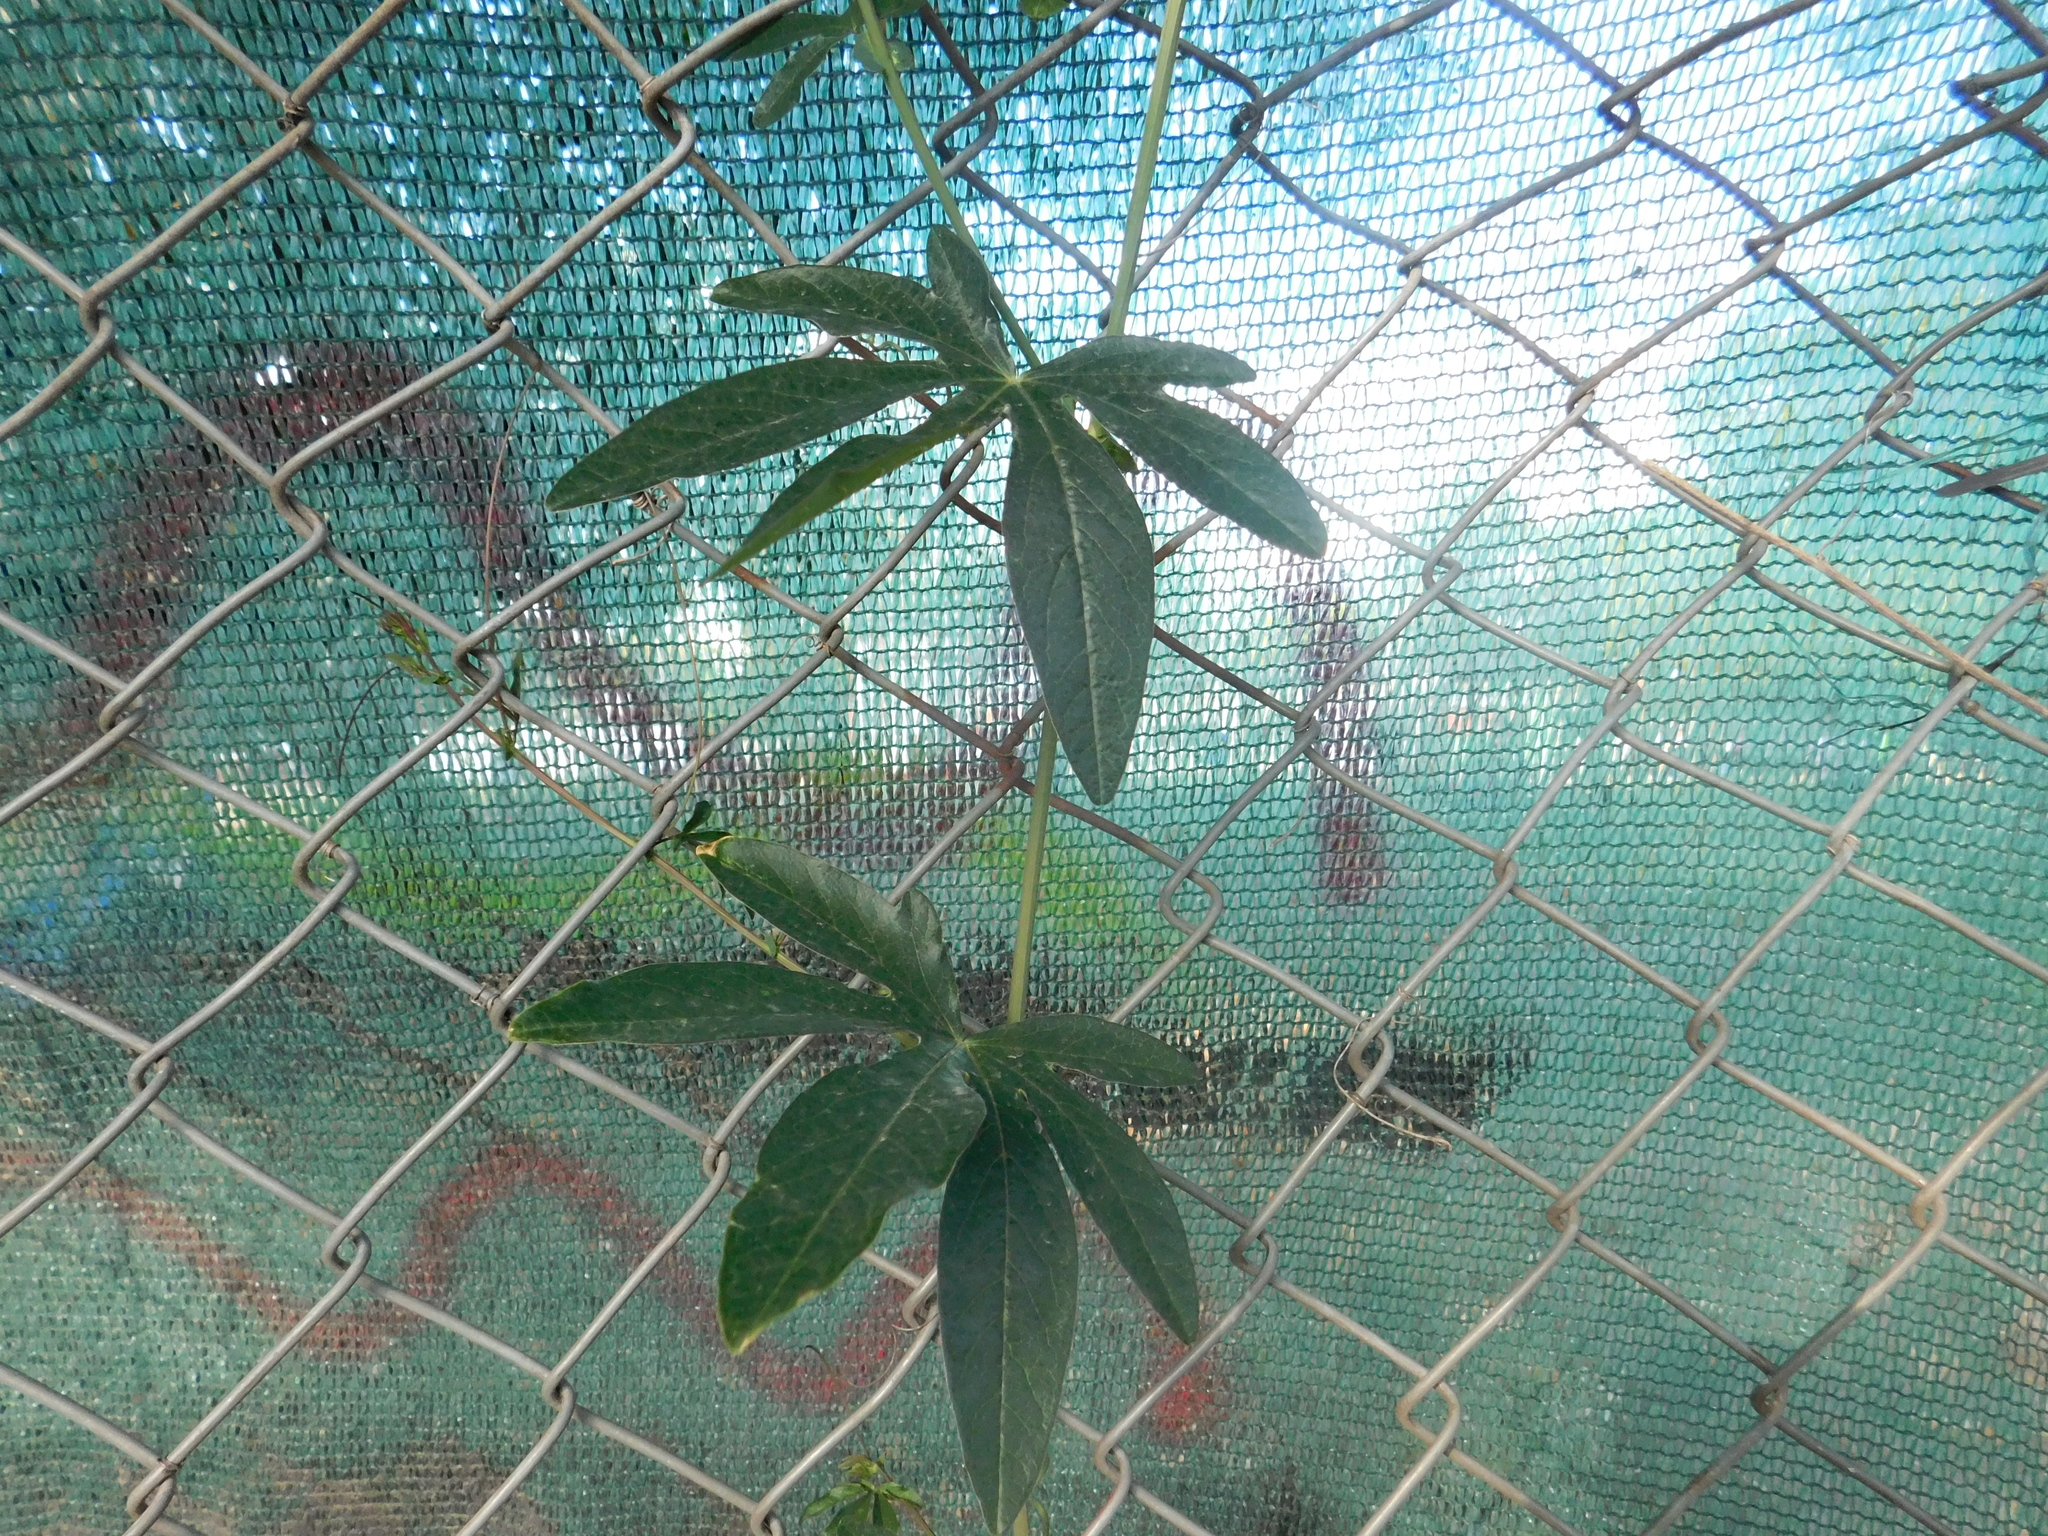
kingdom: Plantae
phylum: Tracheophyta
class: Magnoliopsida
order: Malpighiales
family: Passifloraceae
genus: Passiflora
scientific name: Passiflora caerulea
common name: Blue passionflower
